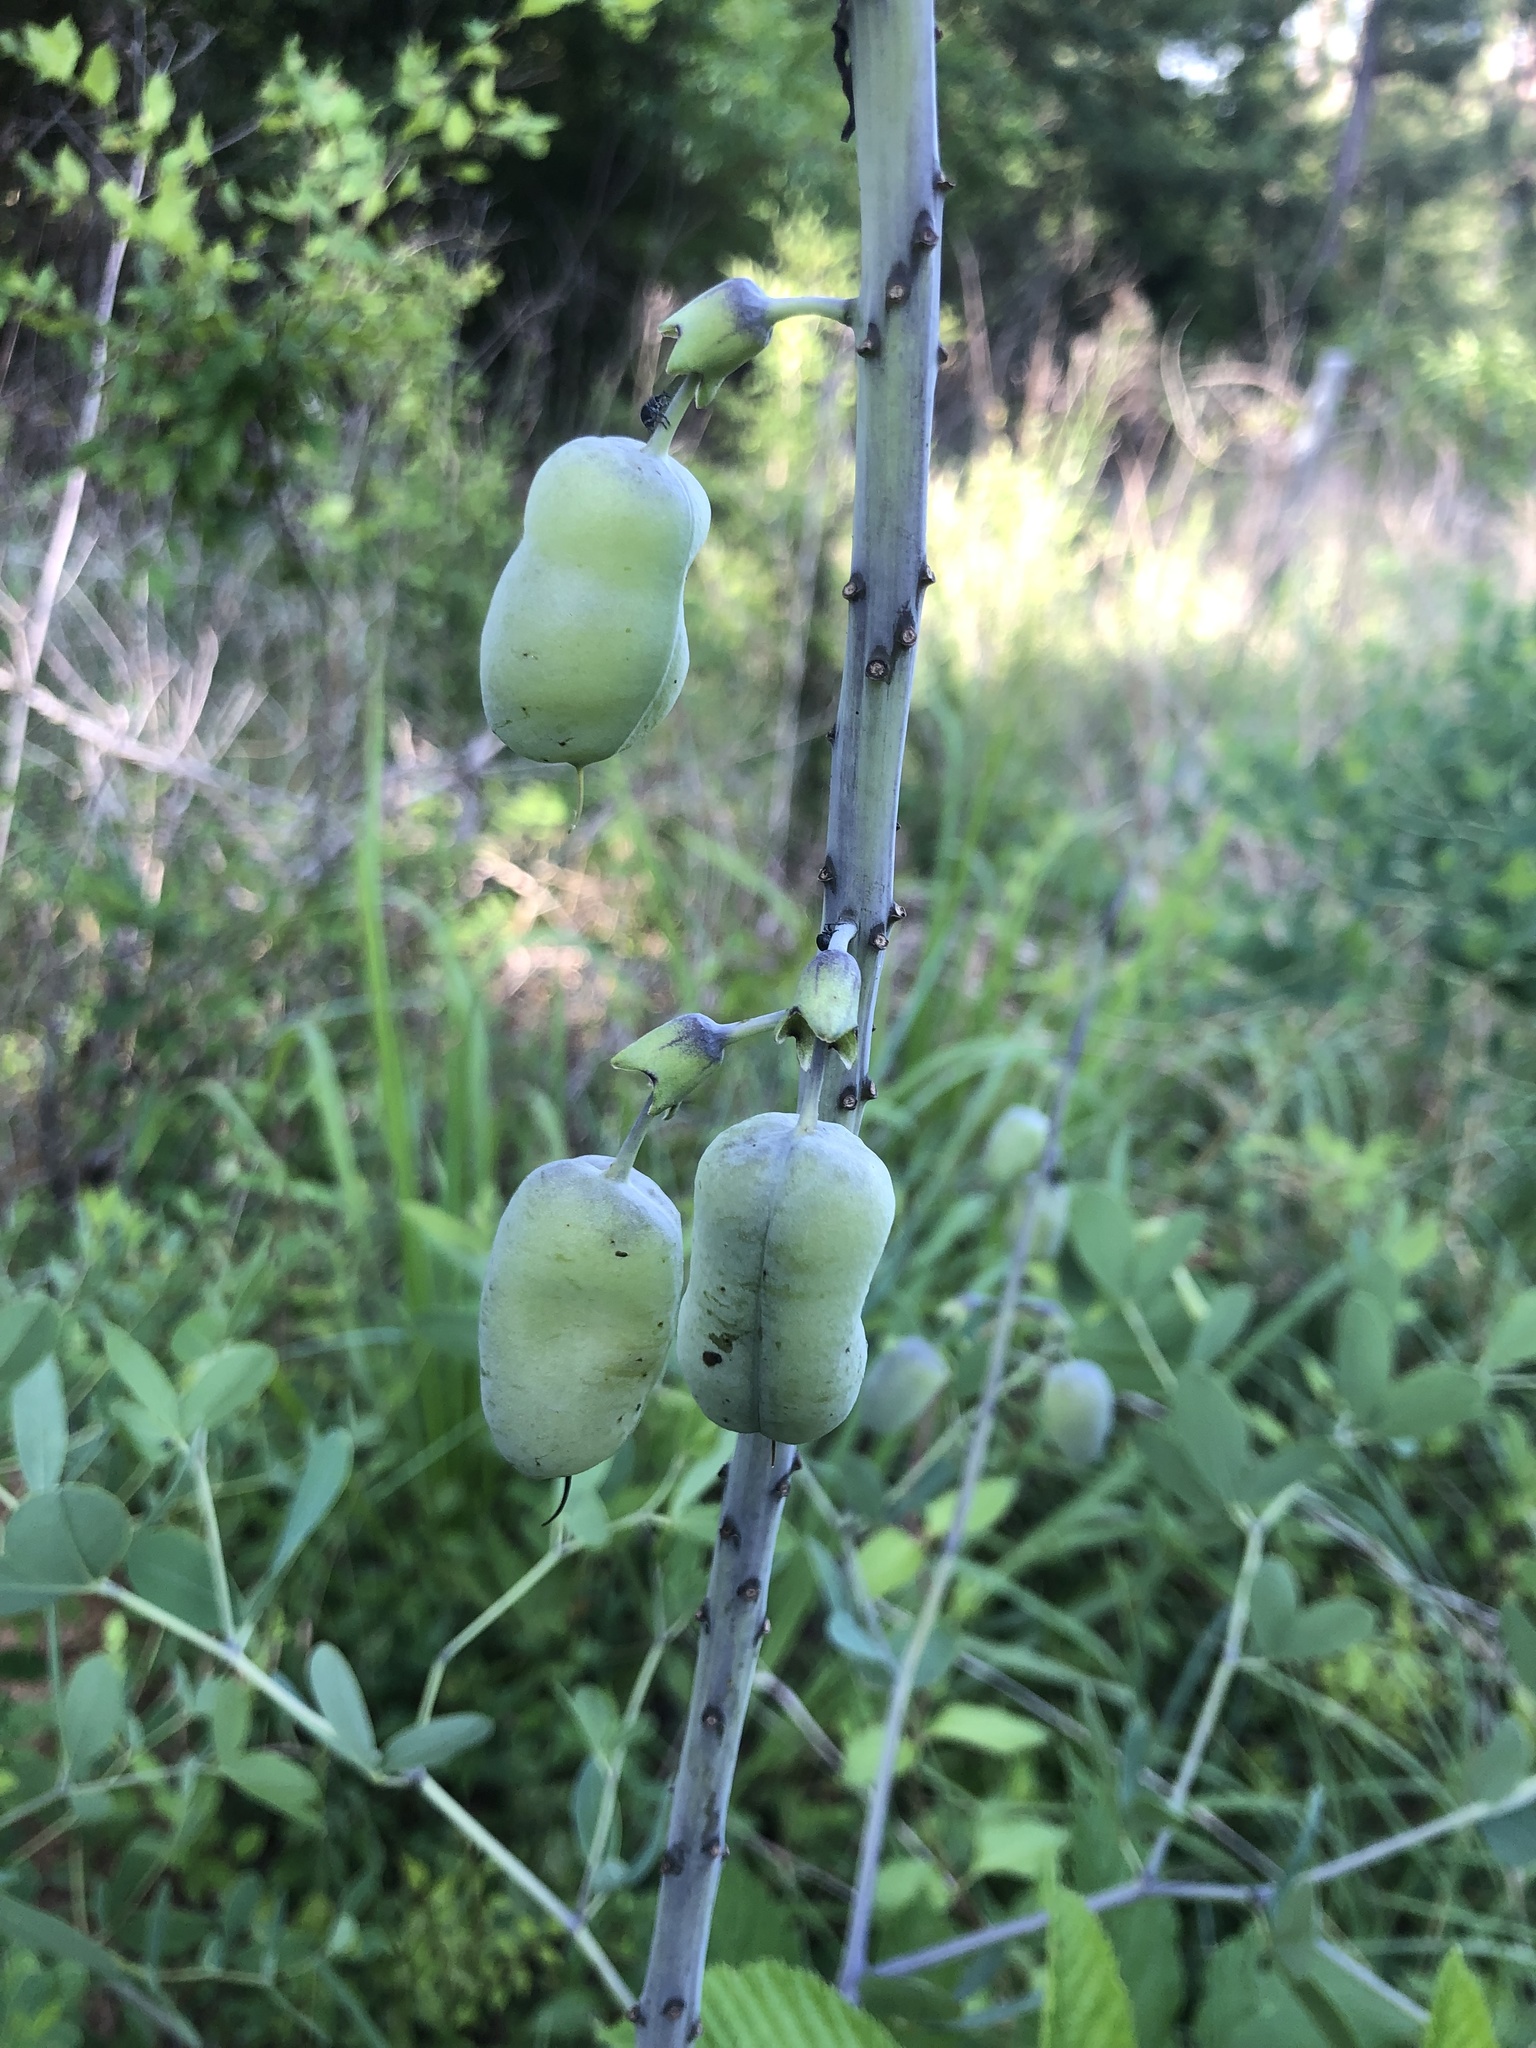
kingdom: Plantae
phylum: Tracheophyta
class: Magnoliopsida
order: Fabales
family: Fabaceae
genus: Baptisia
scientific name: Baptisia alba
